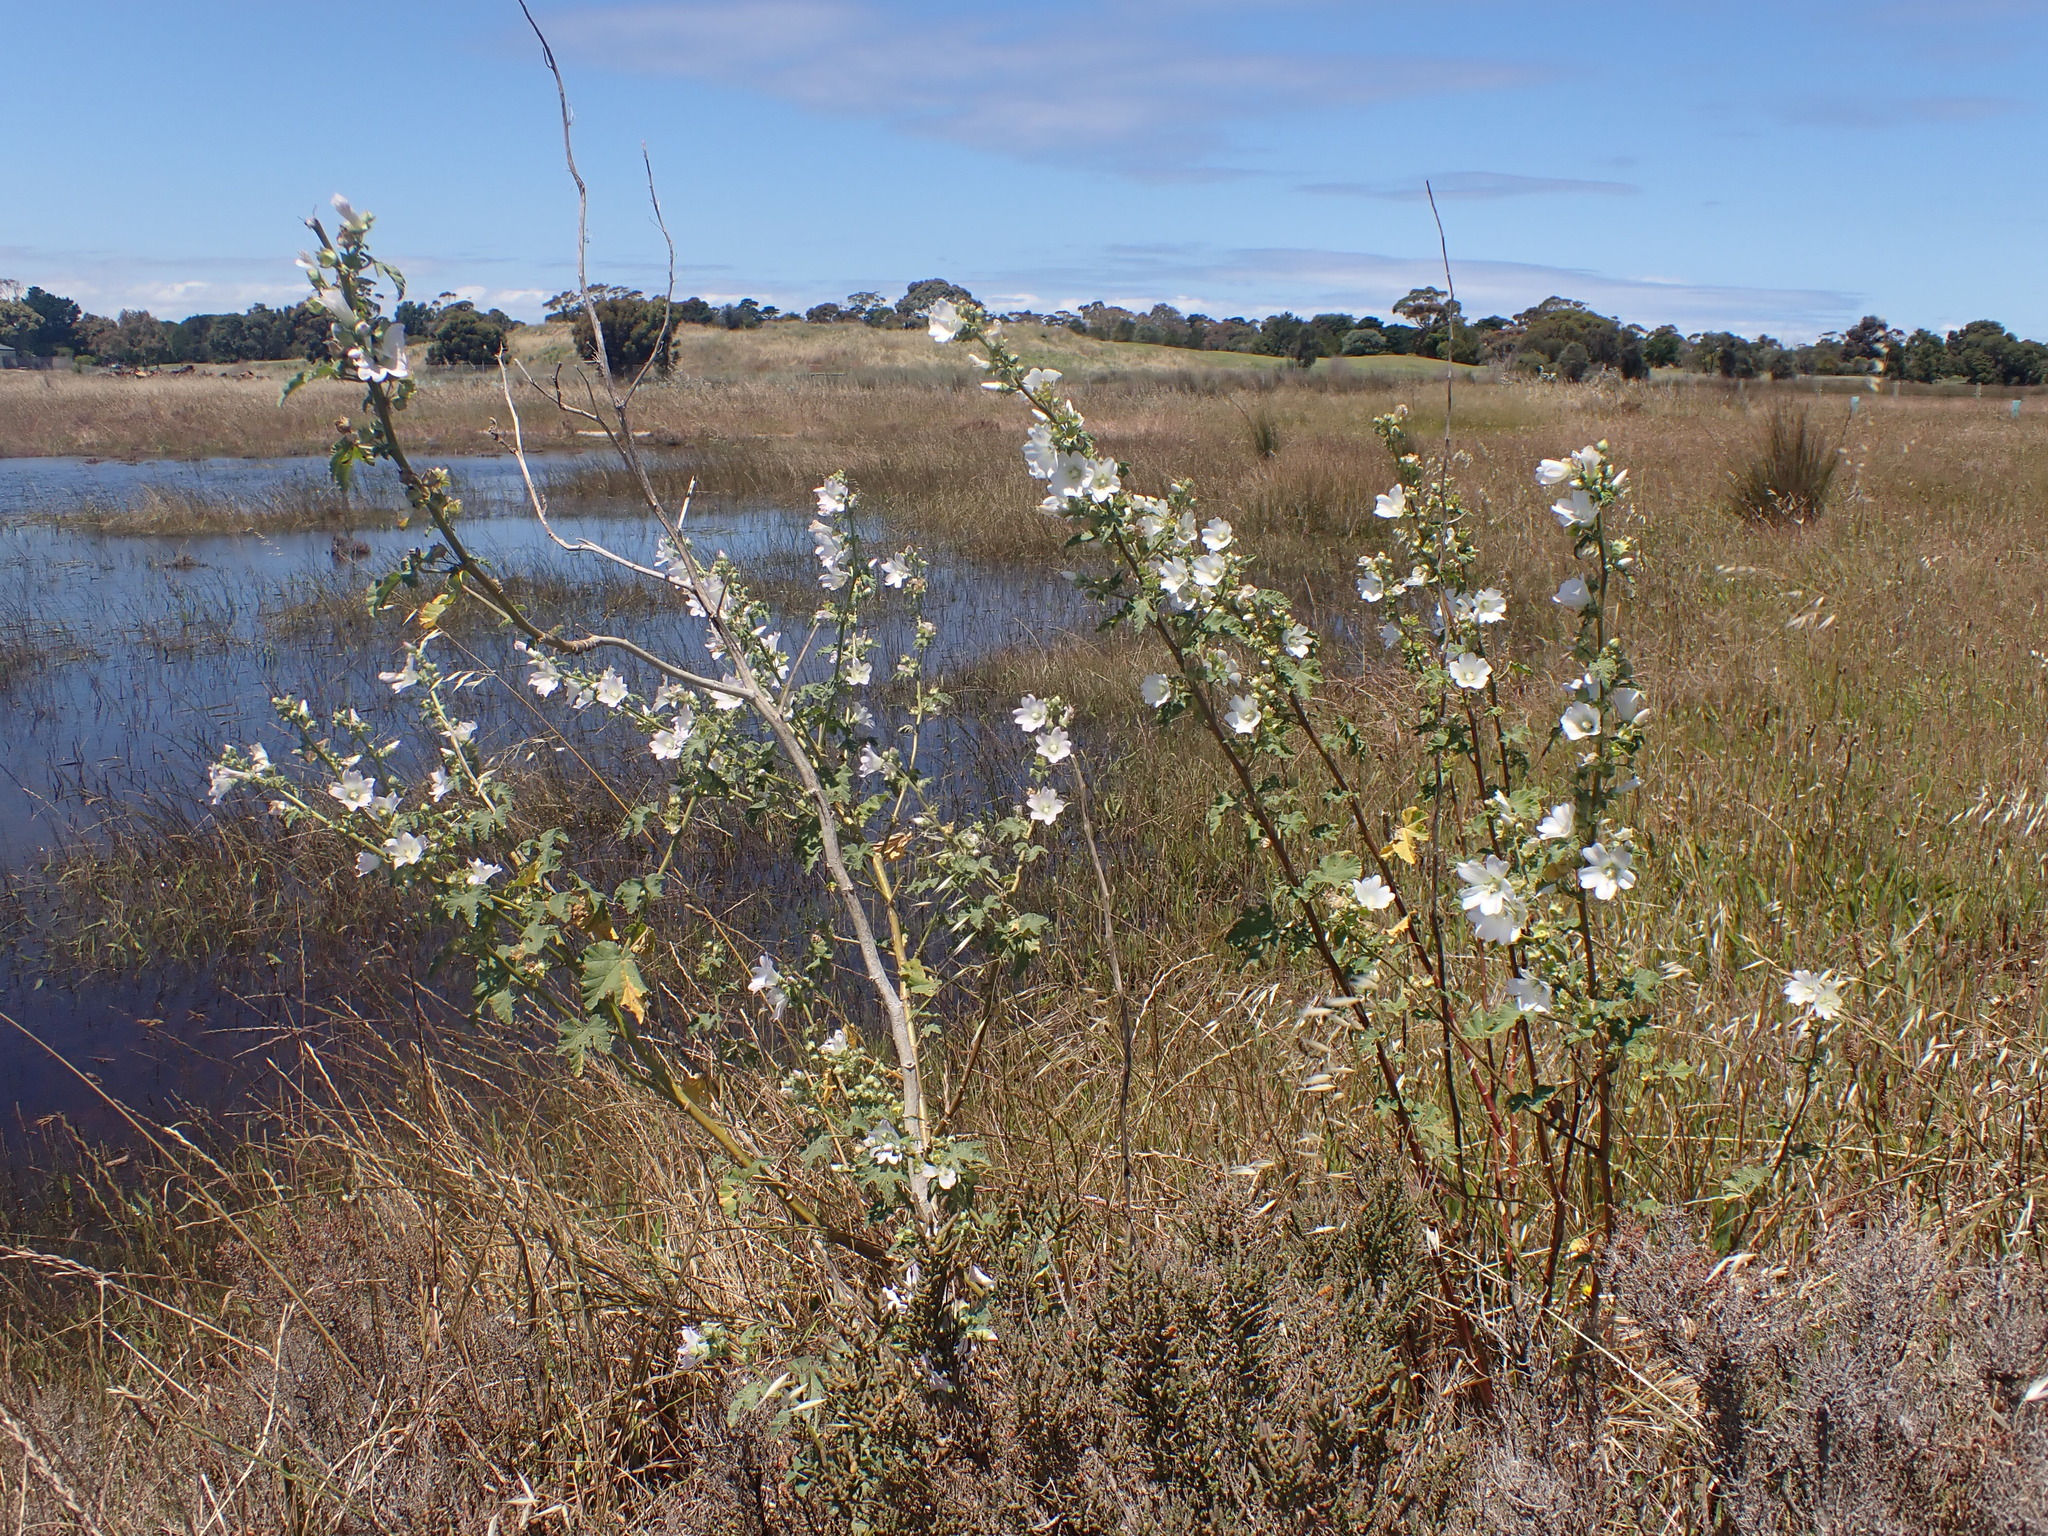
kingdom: Plantae
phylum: Tracheophyta
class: Magnoliopsida
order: Malvales
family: Malvaceae
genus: Malva
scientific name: Malva preissiana
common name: Australian-hollyhock
